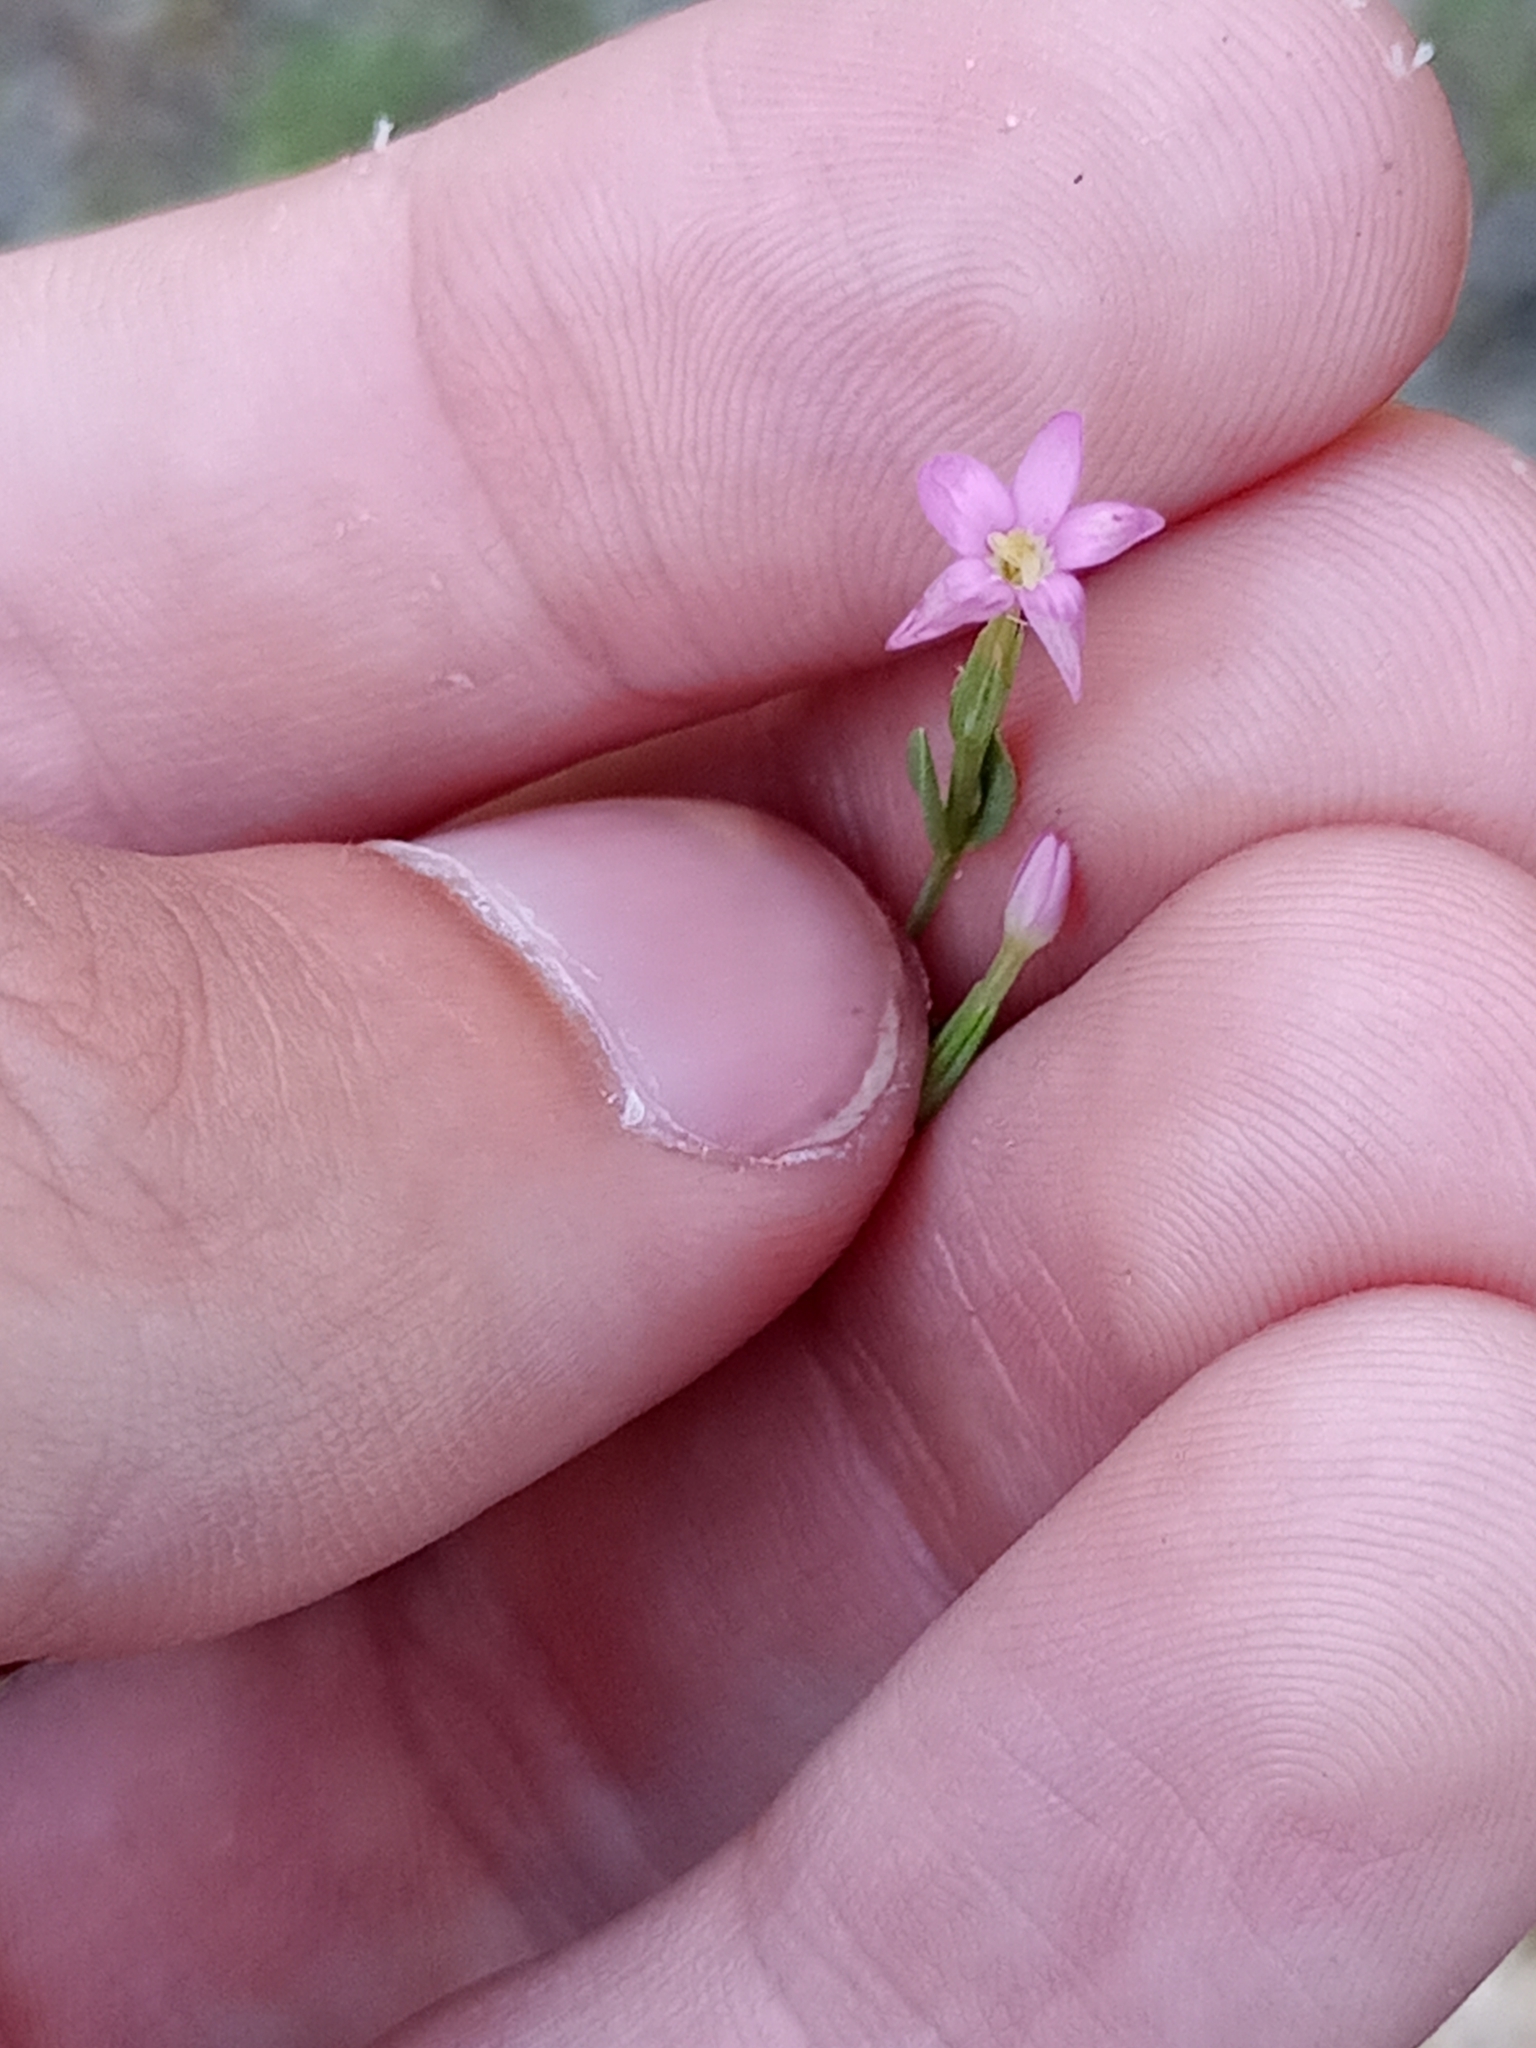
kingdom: Plantae
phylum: Tracheophyta
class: Magnoliopsida
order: Gentianales
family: Gentianaceae
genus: Centaurium
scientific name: Centaurium pulchellum
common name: Lesser centaury
